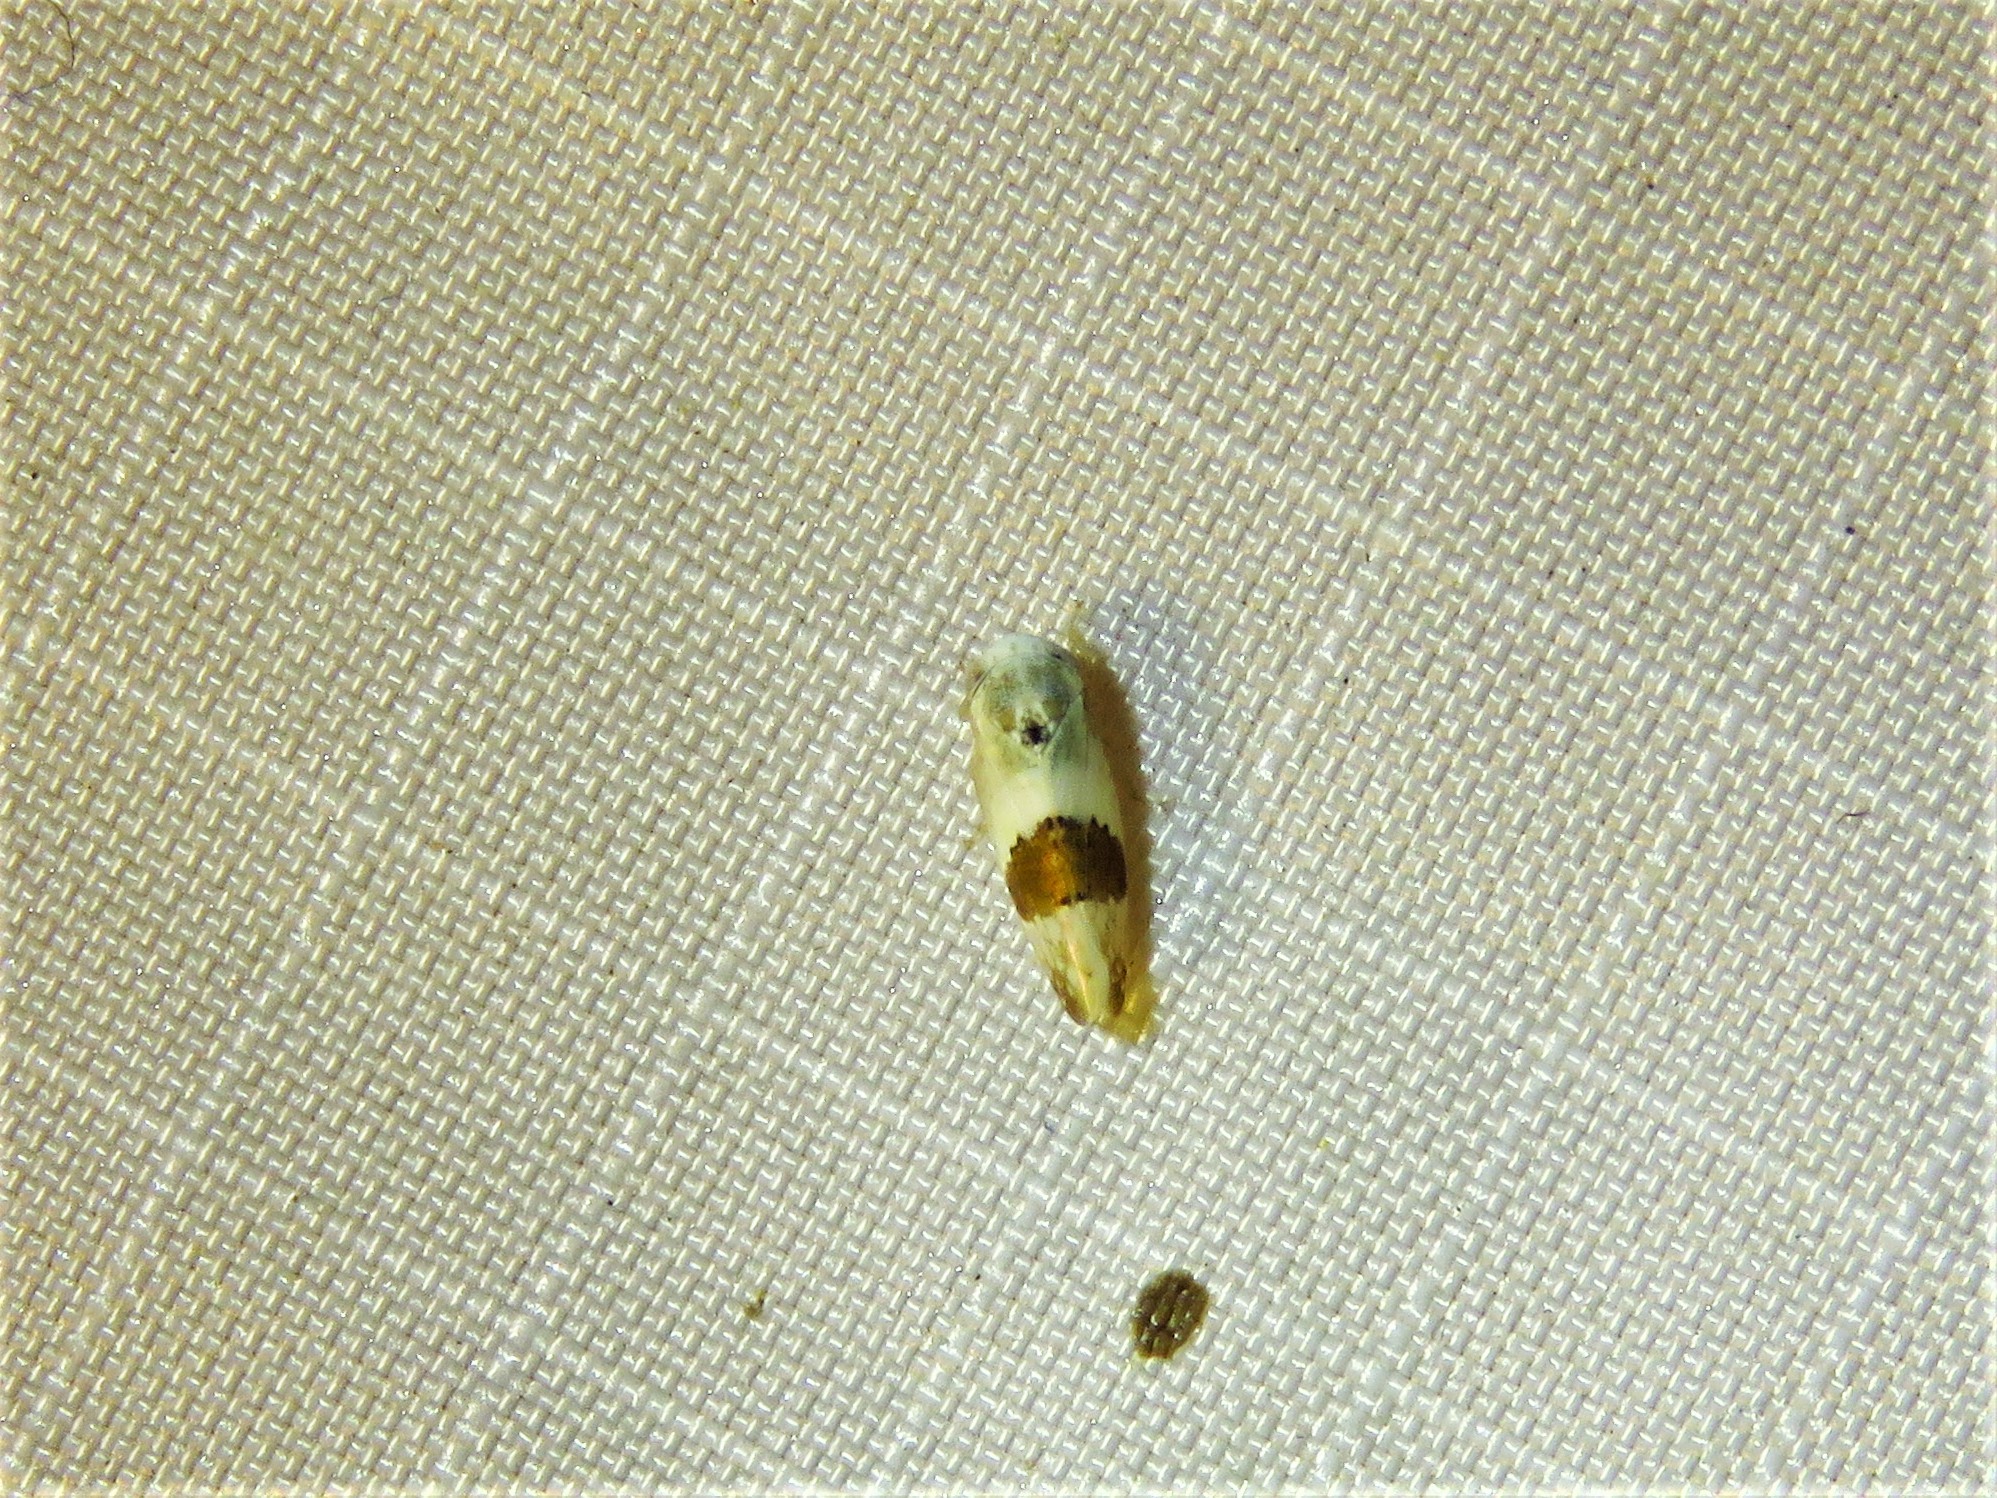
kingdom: Animalia
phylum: Arthropoda
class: Insecta
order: Hemiptera
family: Cicadellidae
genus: Norvellina
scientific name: Norvellina seminuda
